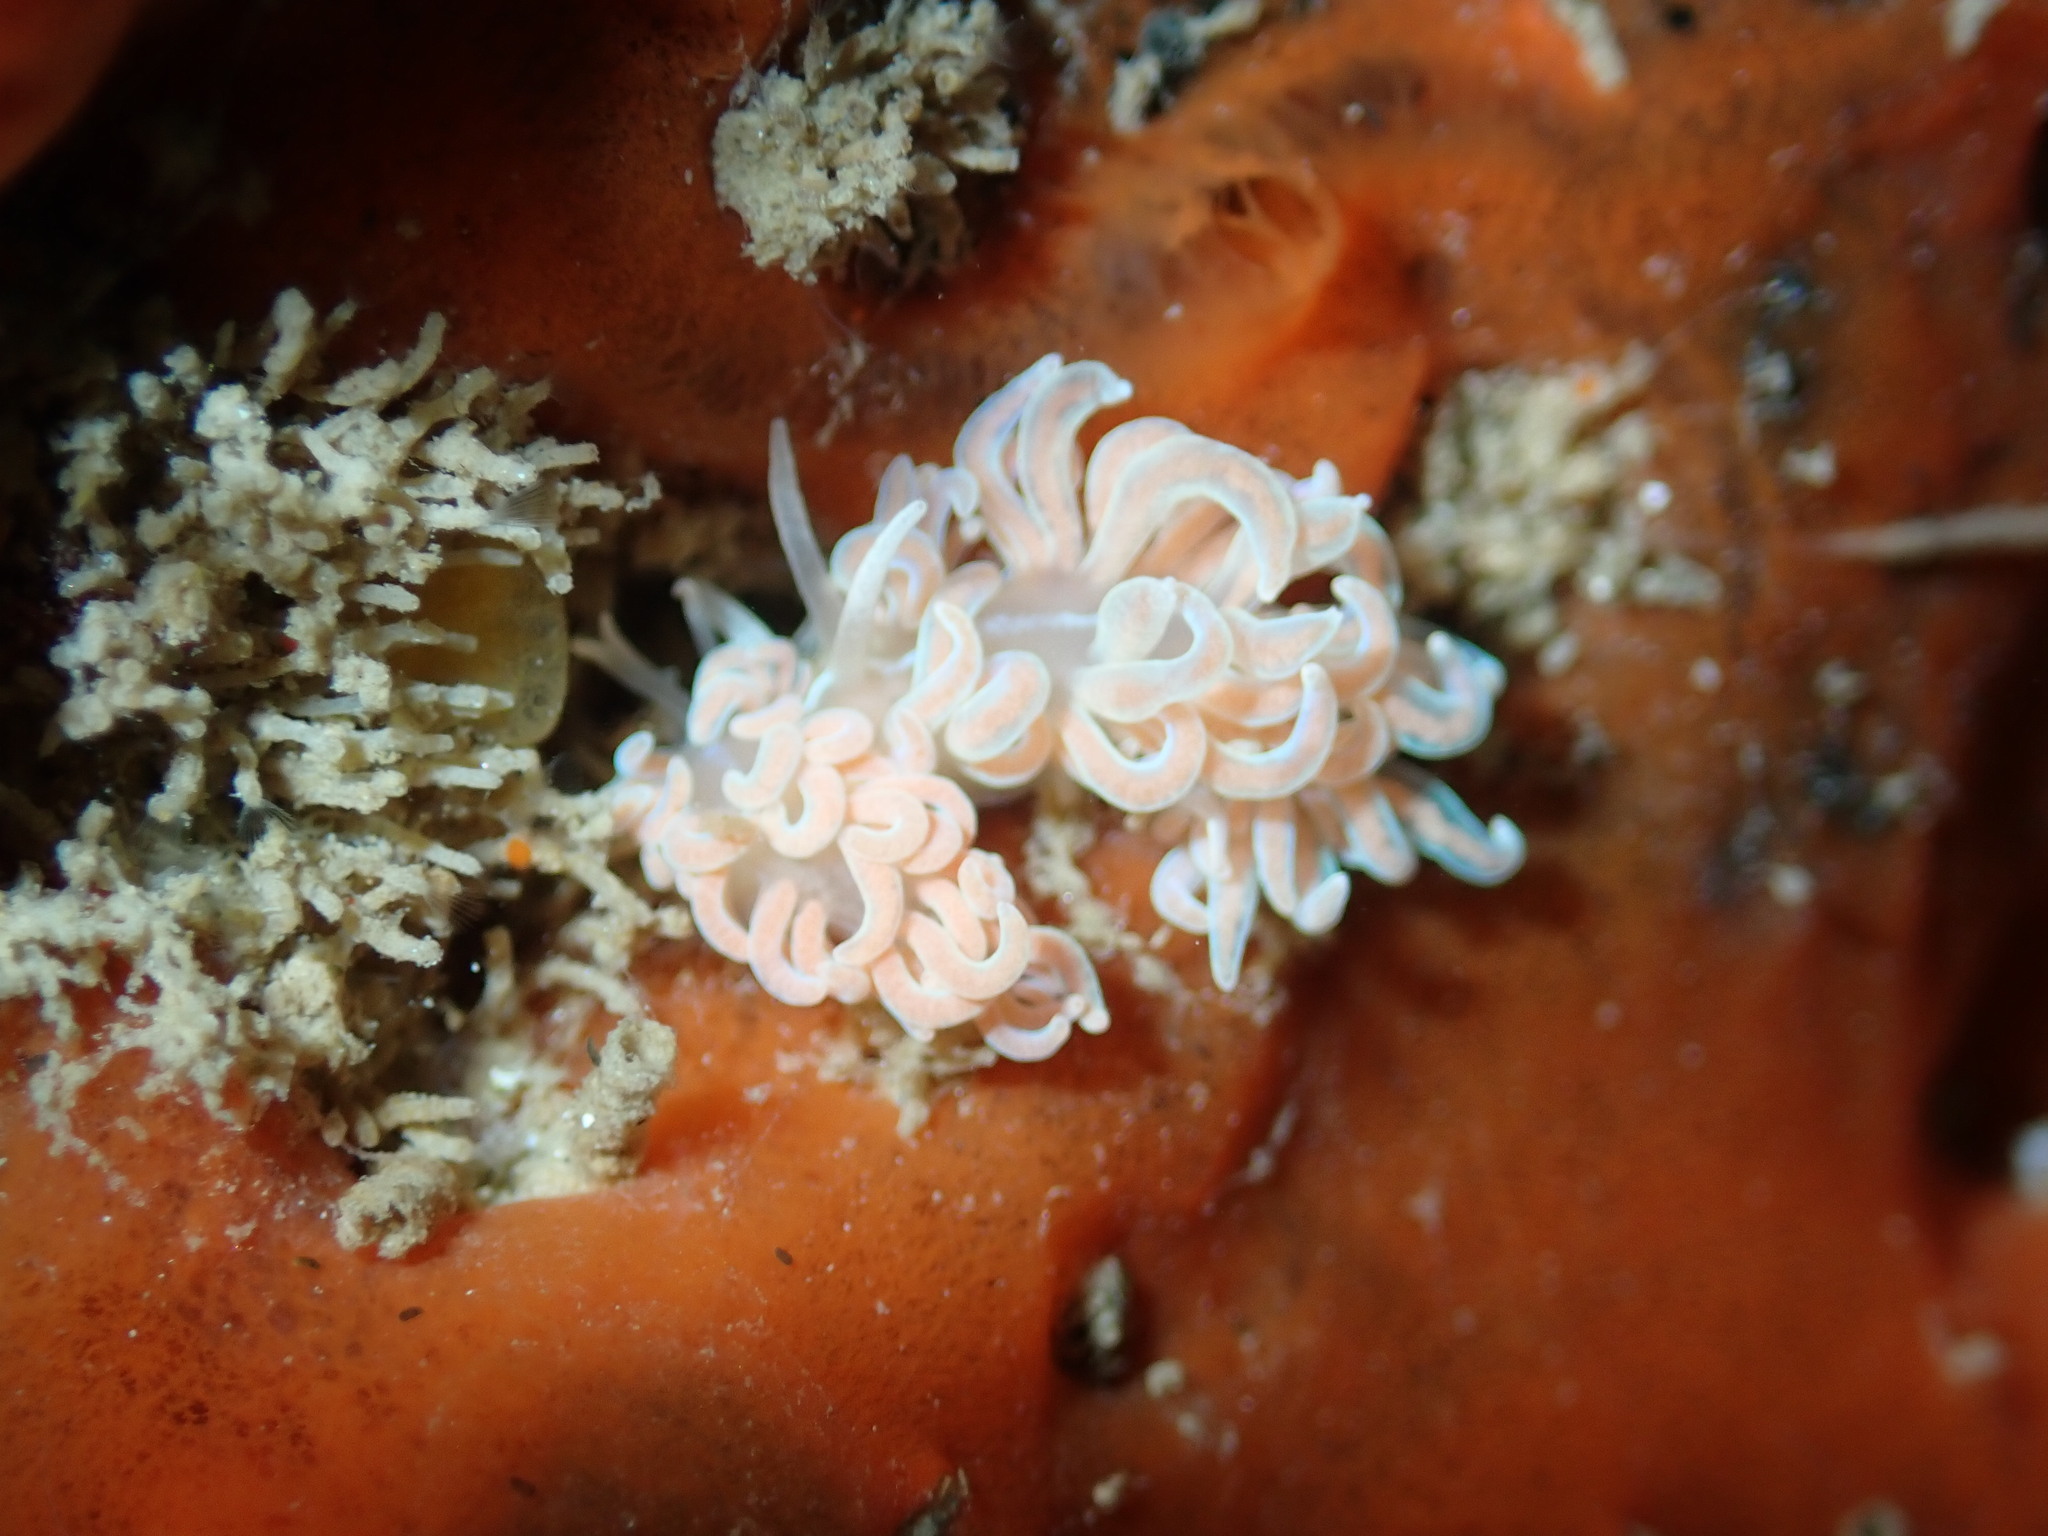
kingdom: Animalia
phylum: Mollusca
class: Gastropoda
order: Nudibranchia
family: Myrrhinidae
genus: Phyllodesmium
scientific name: Phyllodesmium serratum
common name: Coral nudibranch
